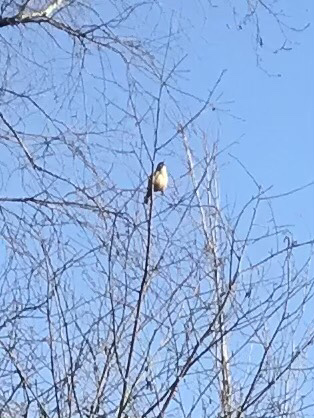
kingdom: Animalia
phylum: Chordata
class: Aves
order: Passeriformes
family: Troglodytidae
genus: Thryothorus
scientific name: Thryothorus ludovicianus
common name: Carolina wren
